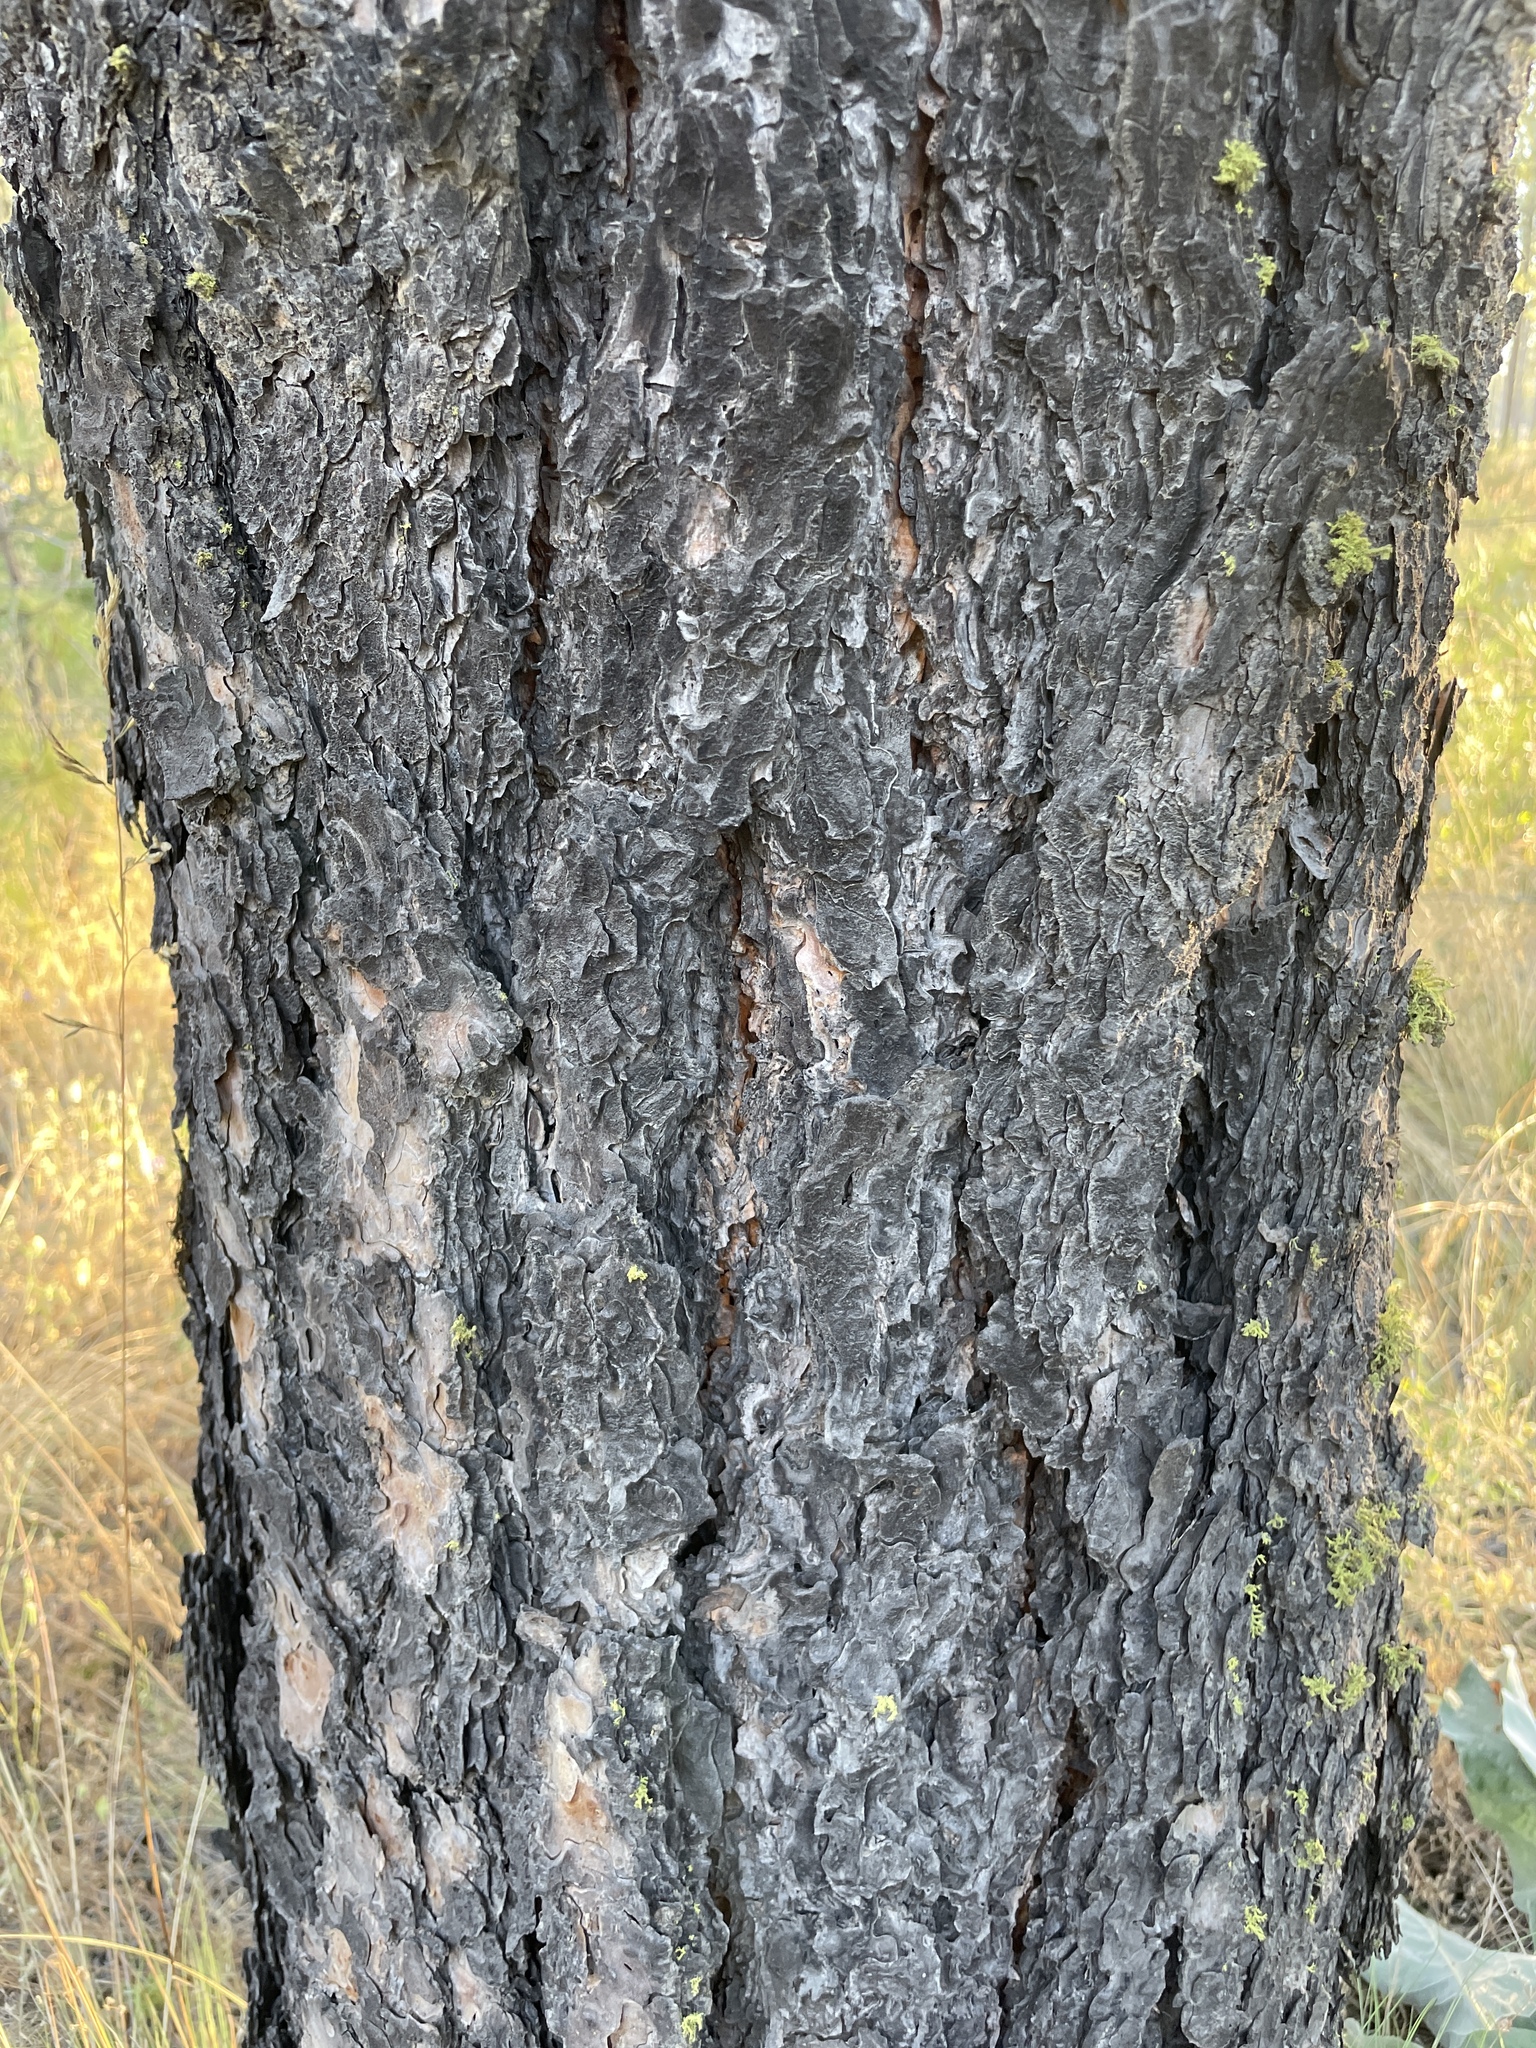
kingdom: Plantae
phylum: Tracheophyta
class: Pinopsida
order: Pinales
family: Pinaceae
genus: Pinus
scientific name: Pinus ponderosa
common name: Western yellow-pine
